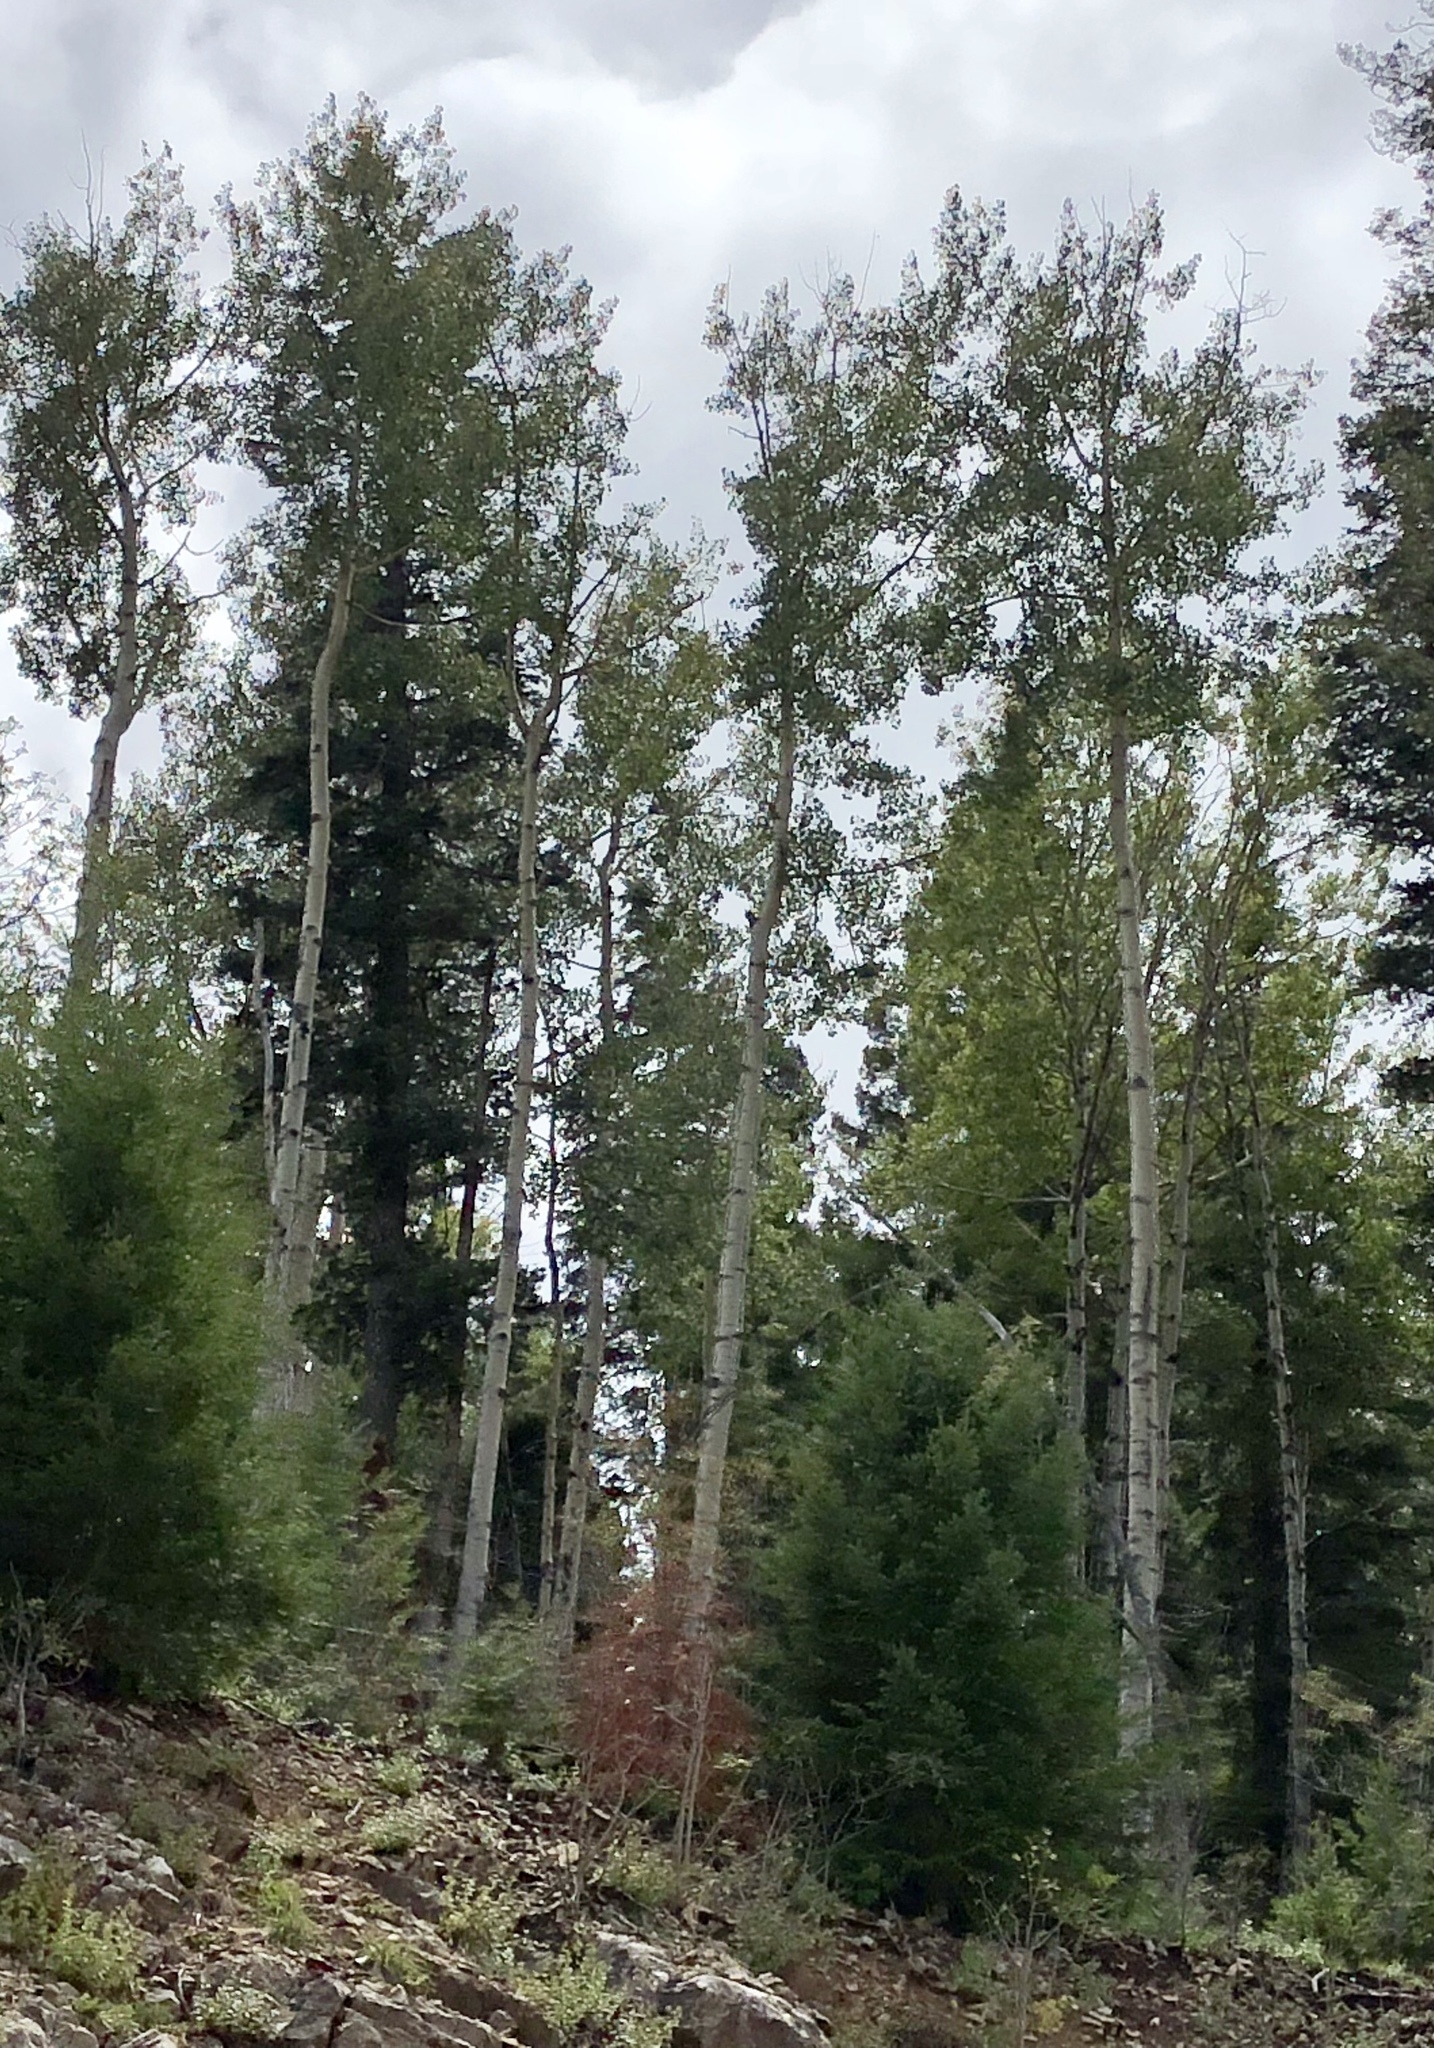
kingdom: Plantae
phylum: Tracheophyta
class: Magnoliopsida
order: Malpighiales
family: Salicaceae
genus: Populus
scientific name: Populus tremuloides
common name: Quaking aspen
